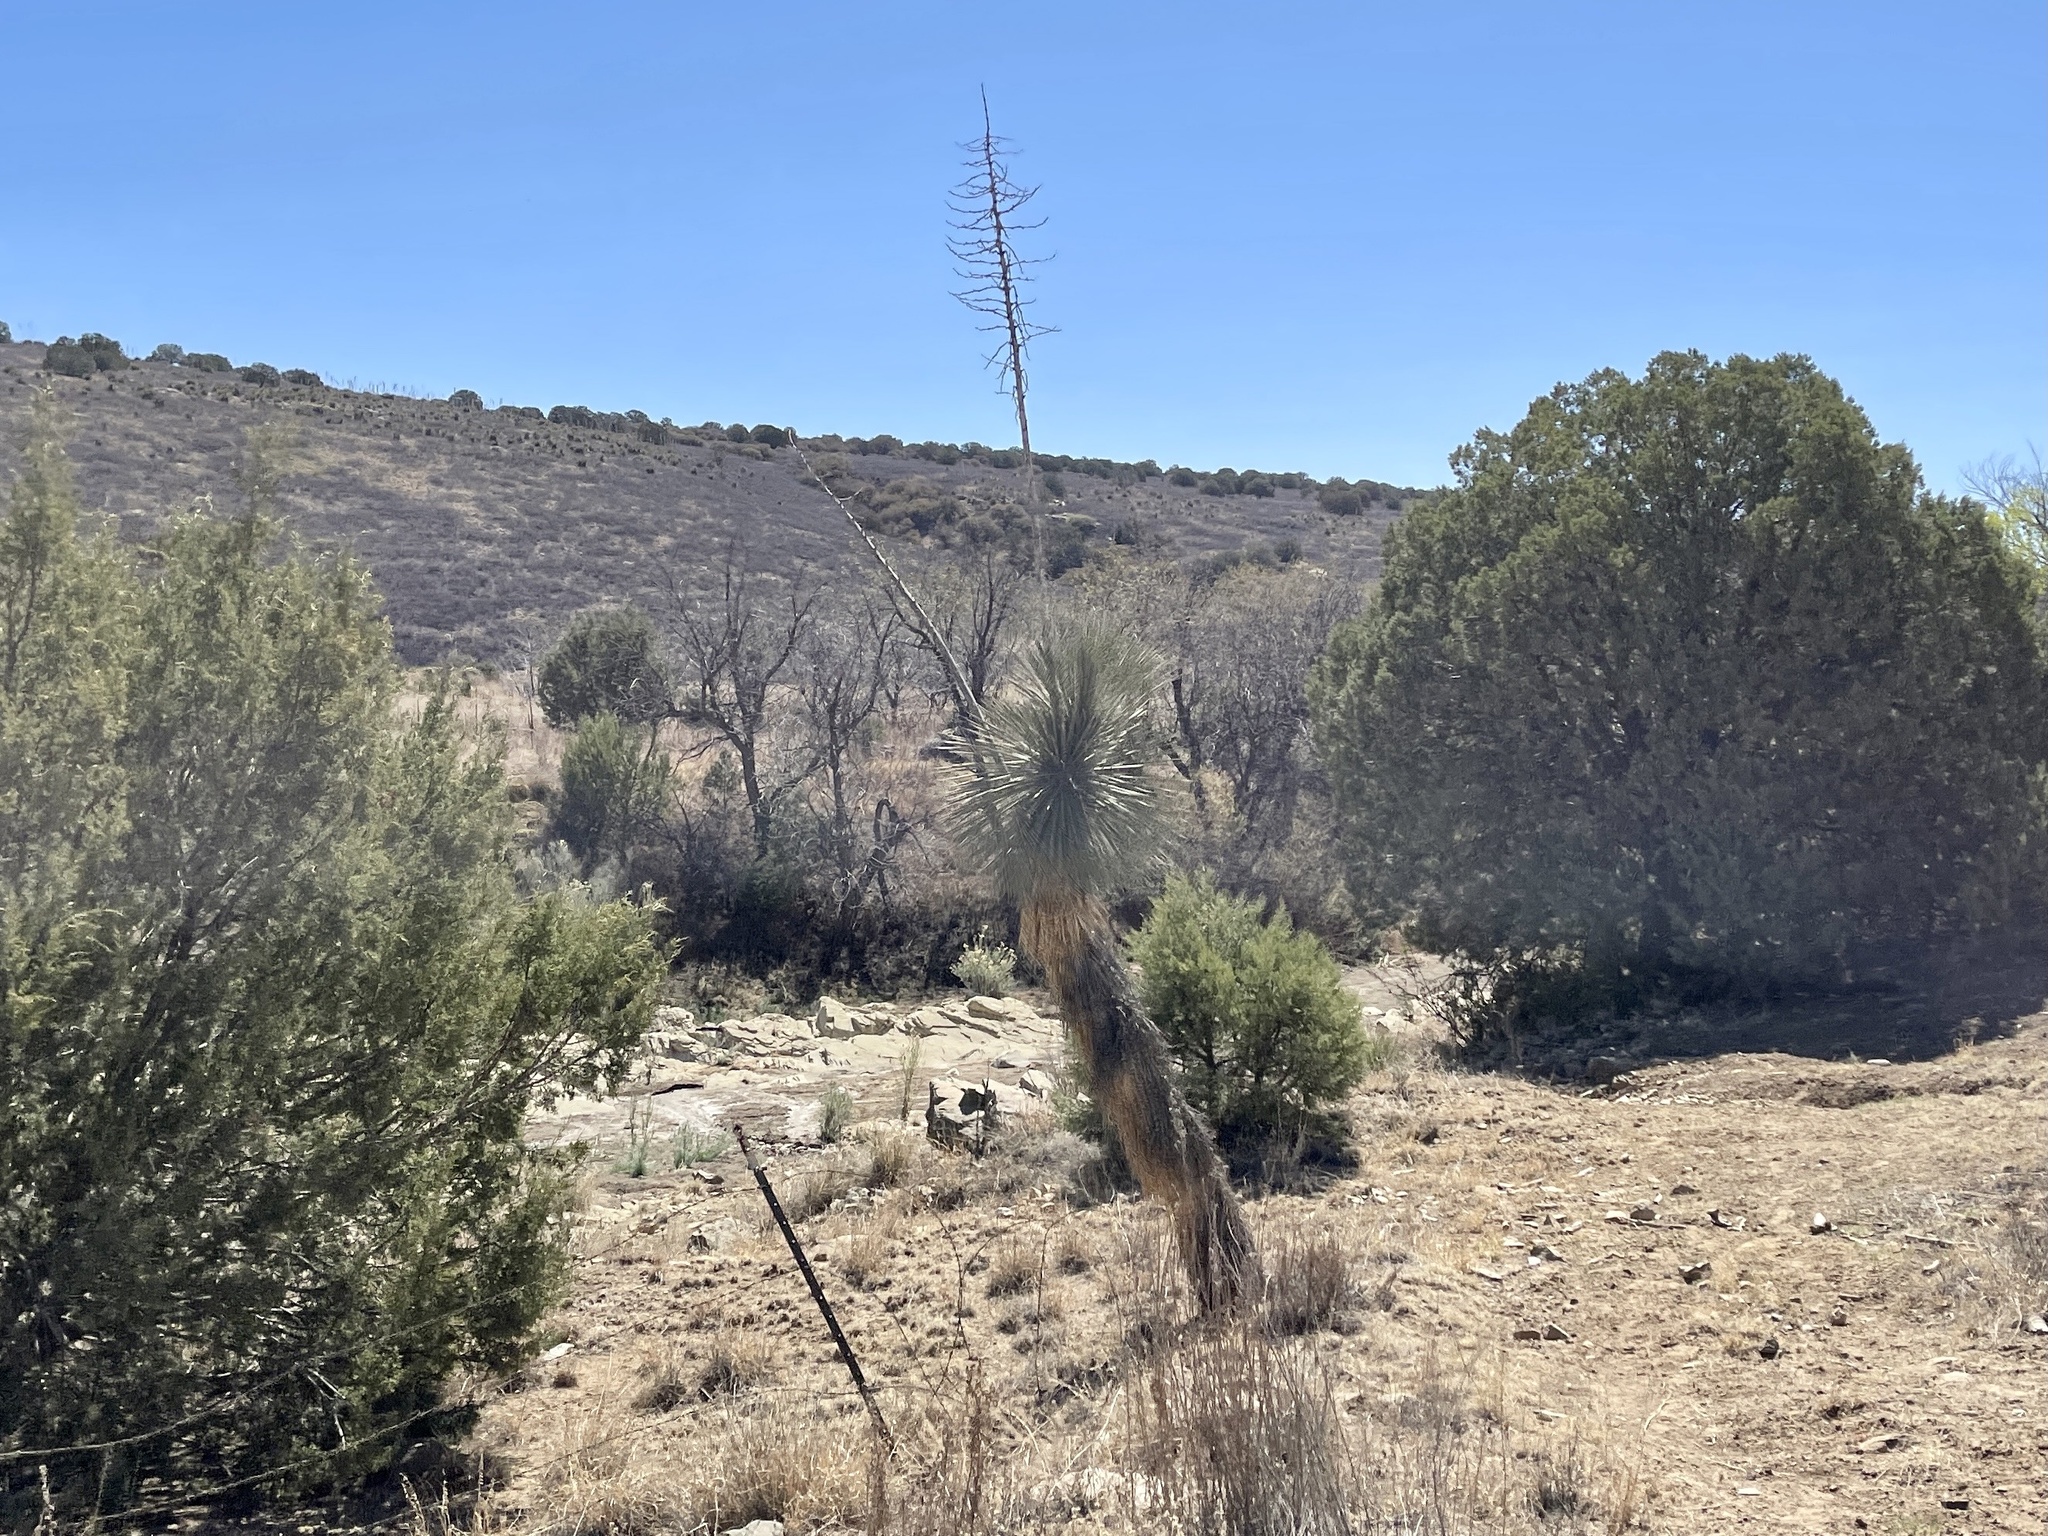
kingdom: Plantae
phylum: Tracheophyta
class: Liliopsida
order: Asparagales
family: Asparagaceae
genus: Yucca
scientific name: Yucca elata
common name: Palmella
